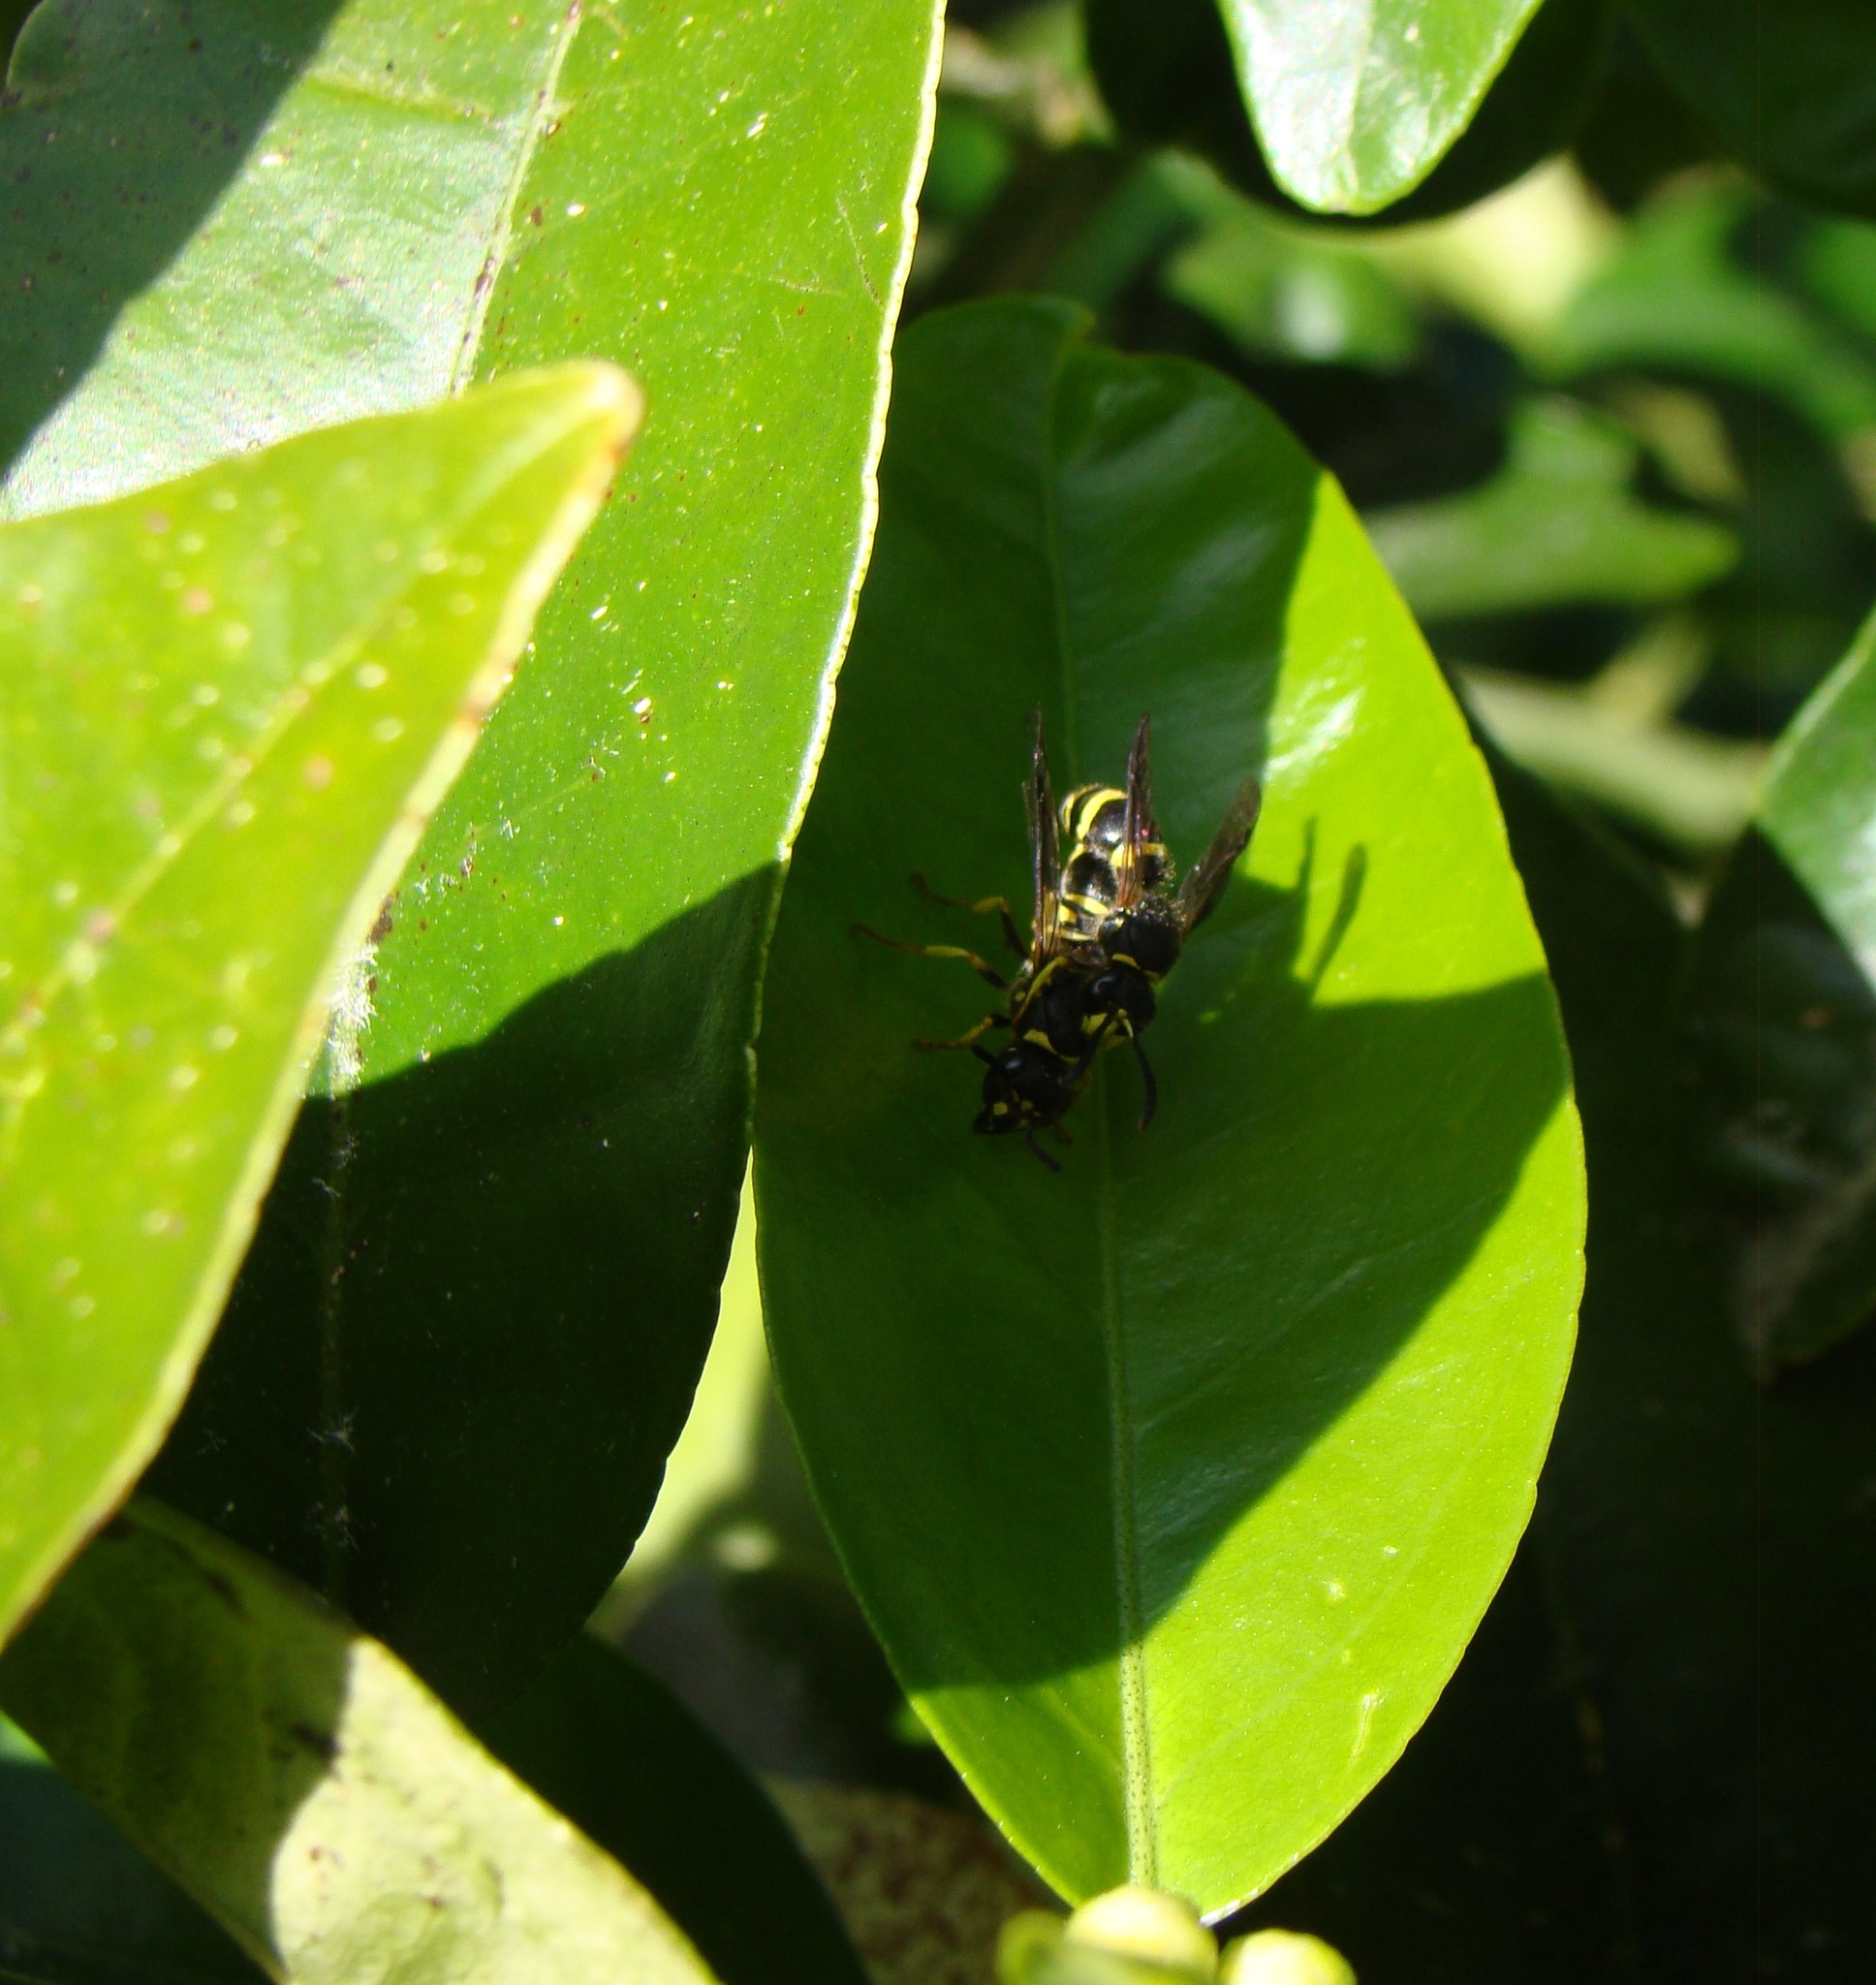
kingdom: Animalia
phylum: Arthropoda
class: Insecta
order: Hymenoptera
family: Vespidae
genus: Ancistrocerus
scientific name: Ancistrocerus gazella
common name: European tube wasp
